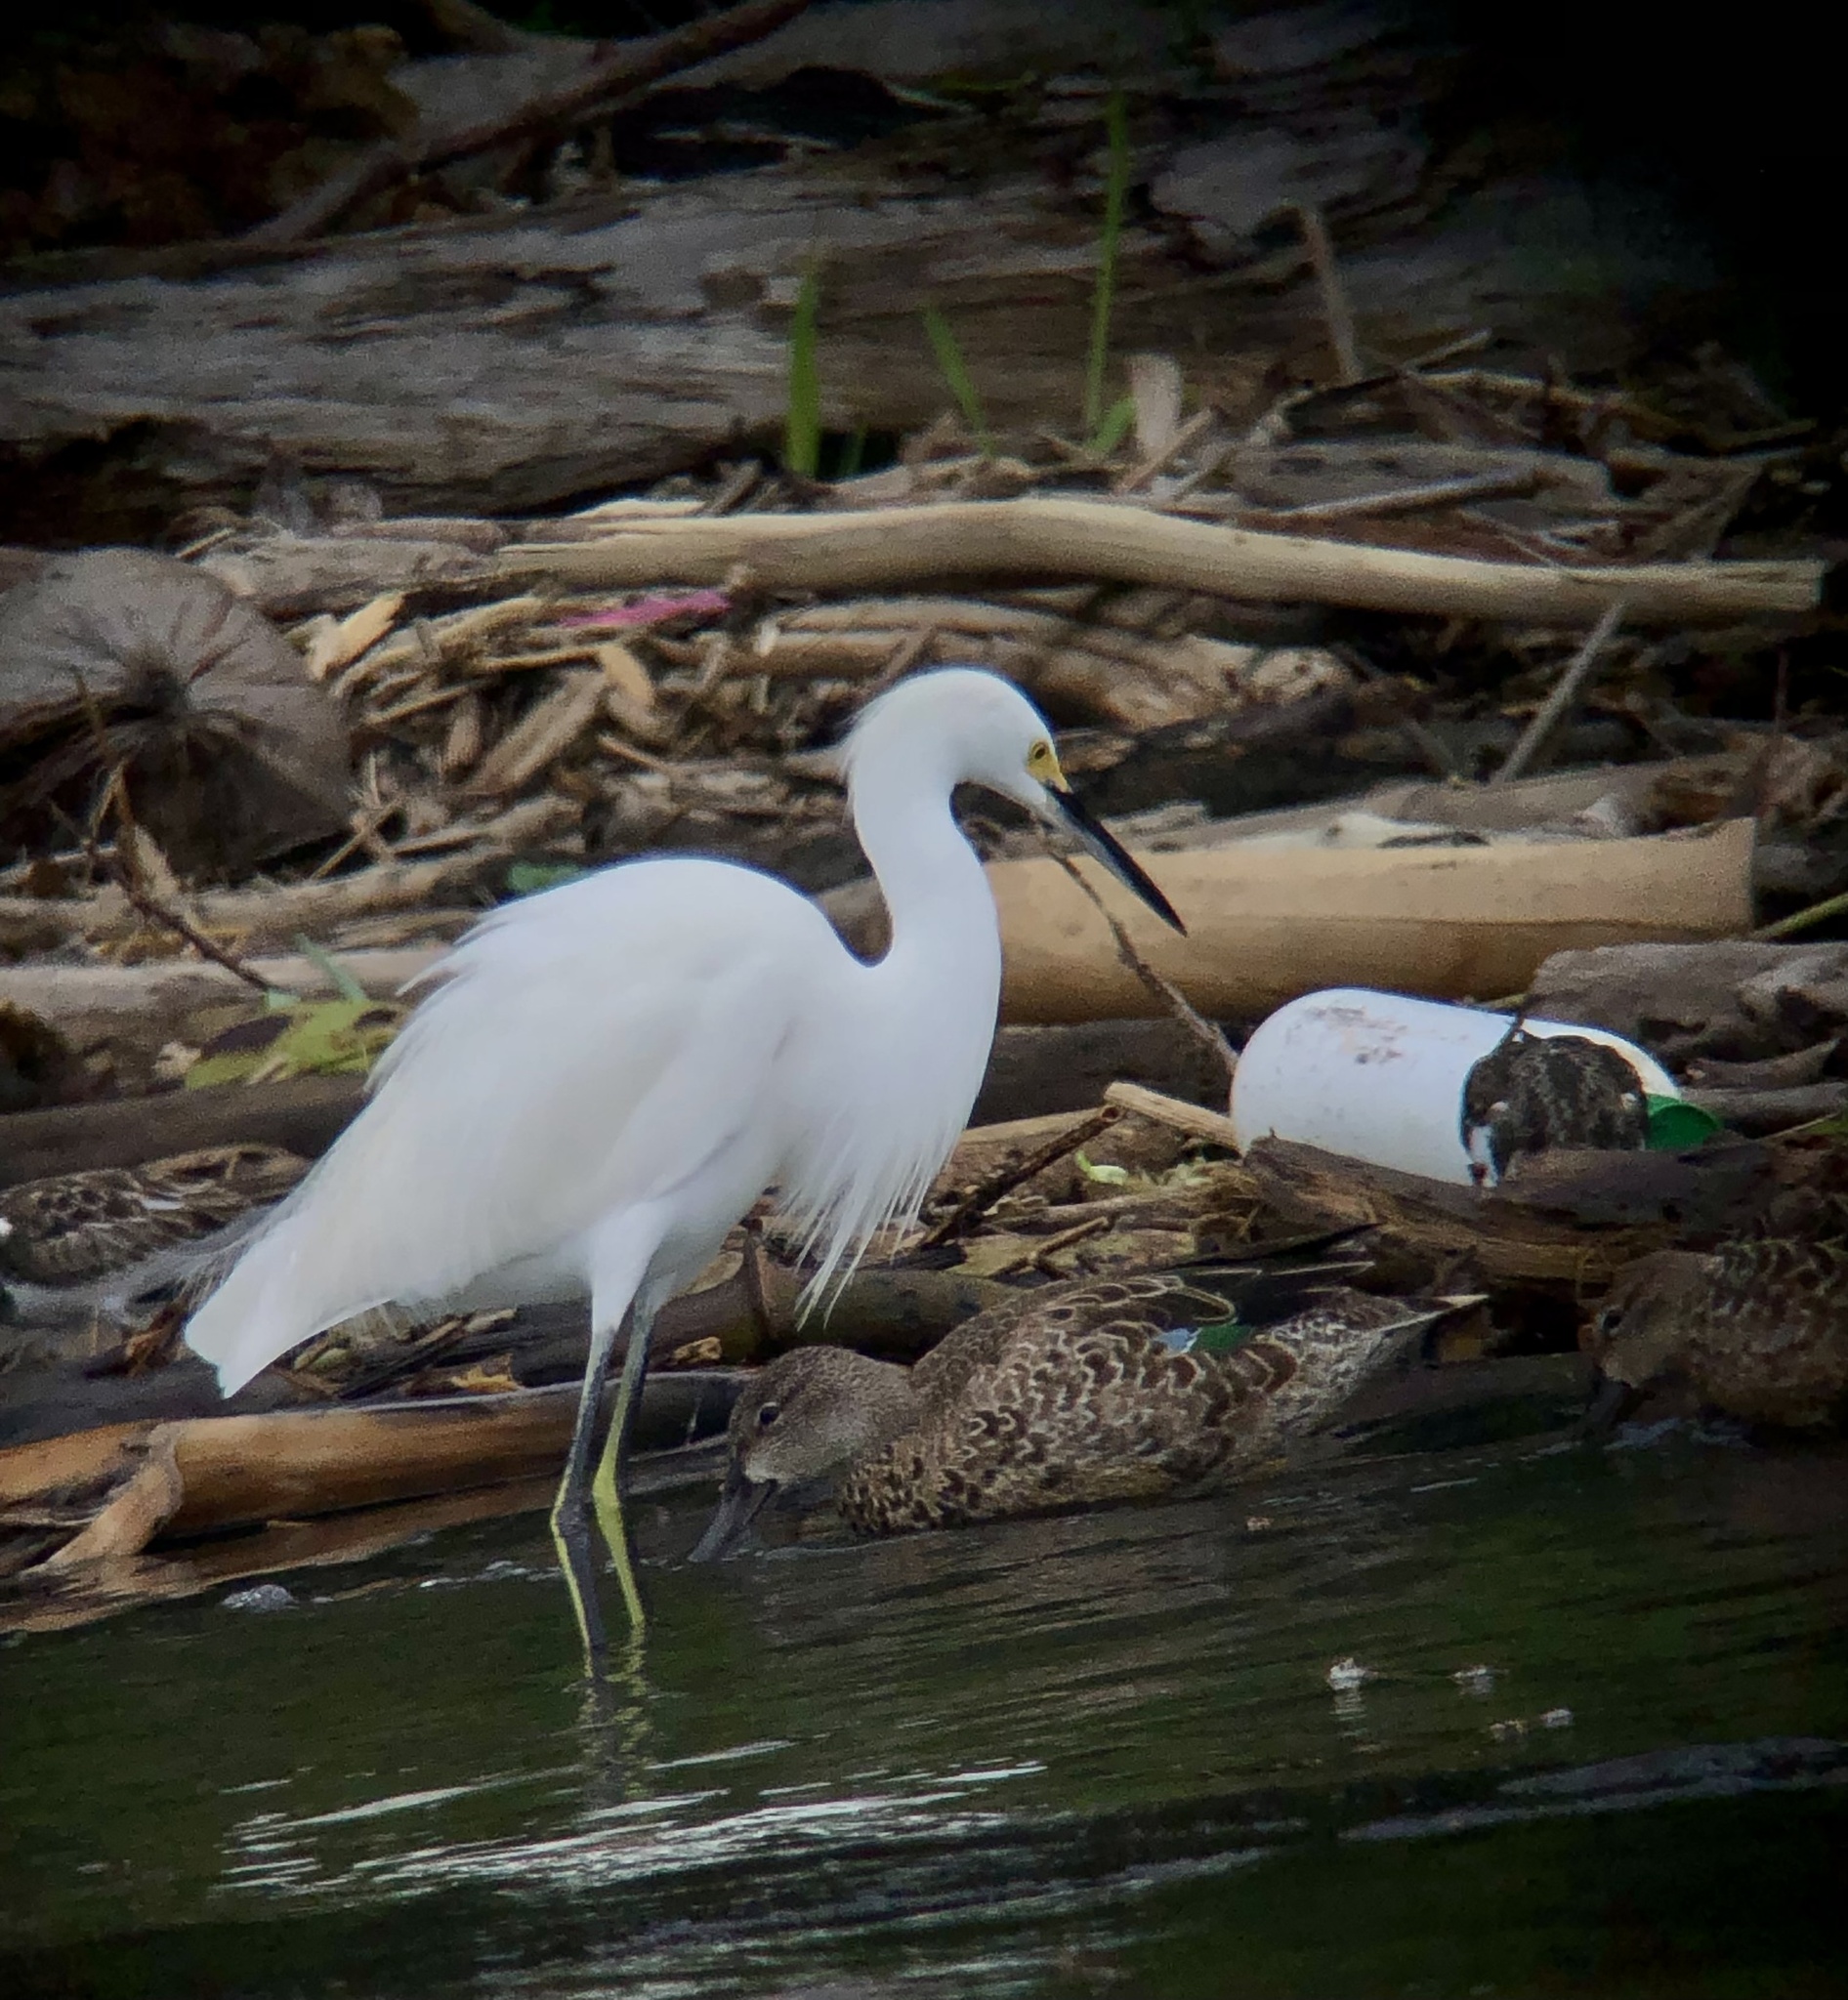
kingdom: Animalia
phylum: Chordata
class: Aves
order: Pelecaniformes
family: Ardeidae
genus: Egretta
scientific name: Egretta thula
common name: Snowy egret
